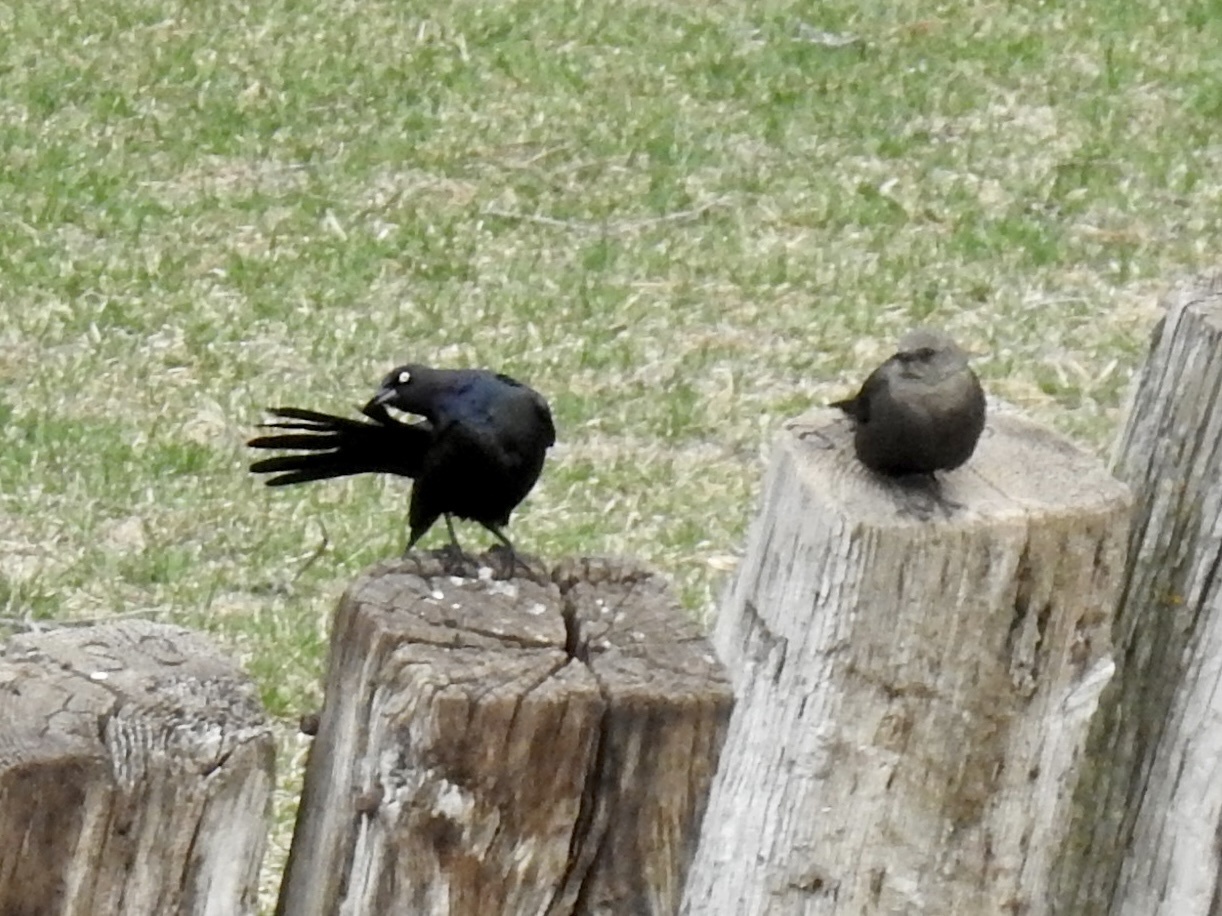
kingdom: Animalia
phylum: Chordata
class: Aves
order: Passeriformes
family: Icteridae
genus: Euphagus
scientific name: Euphagus cyanocephalus
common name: Brewer's blackbird
